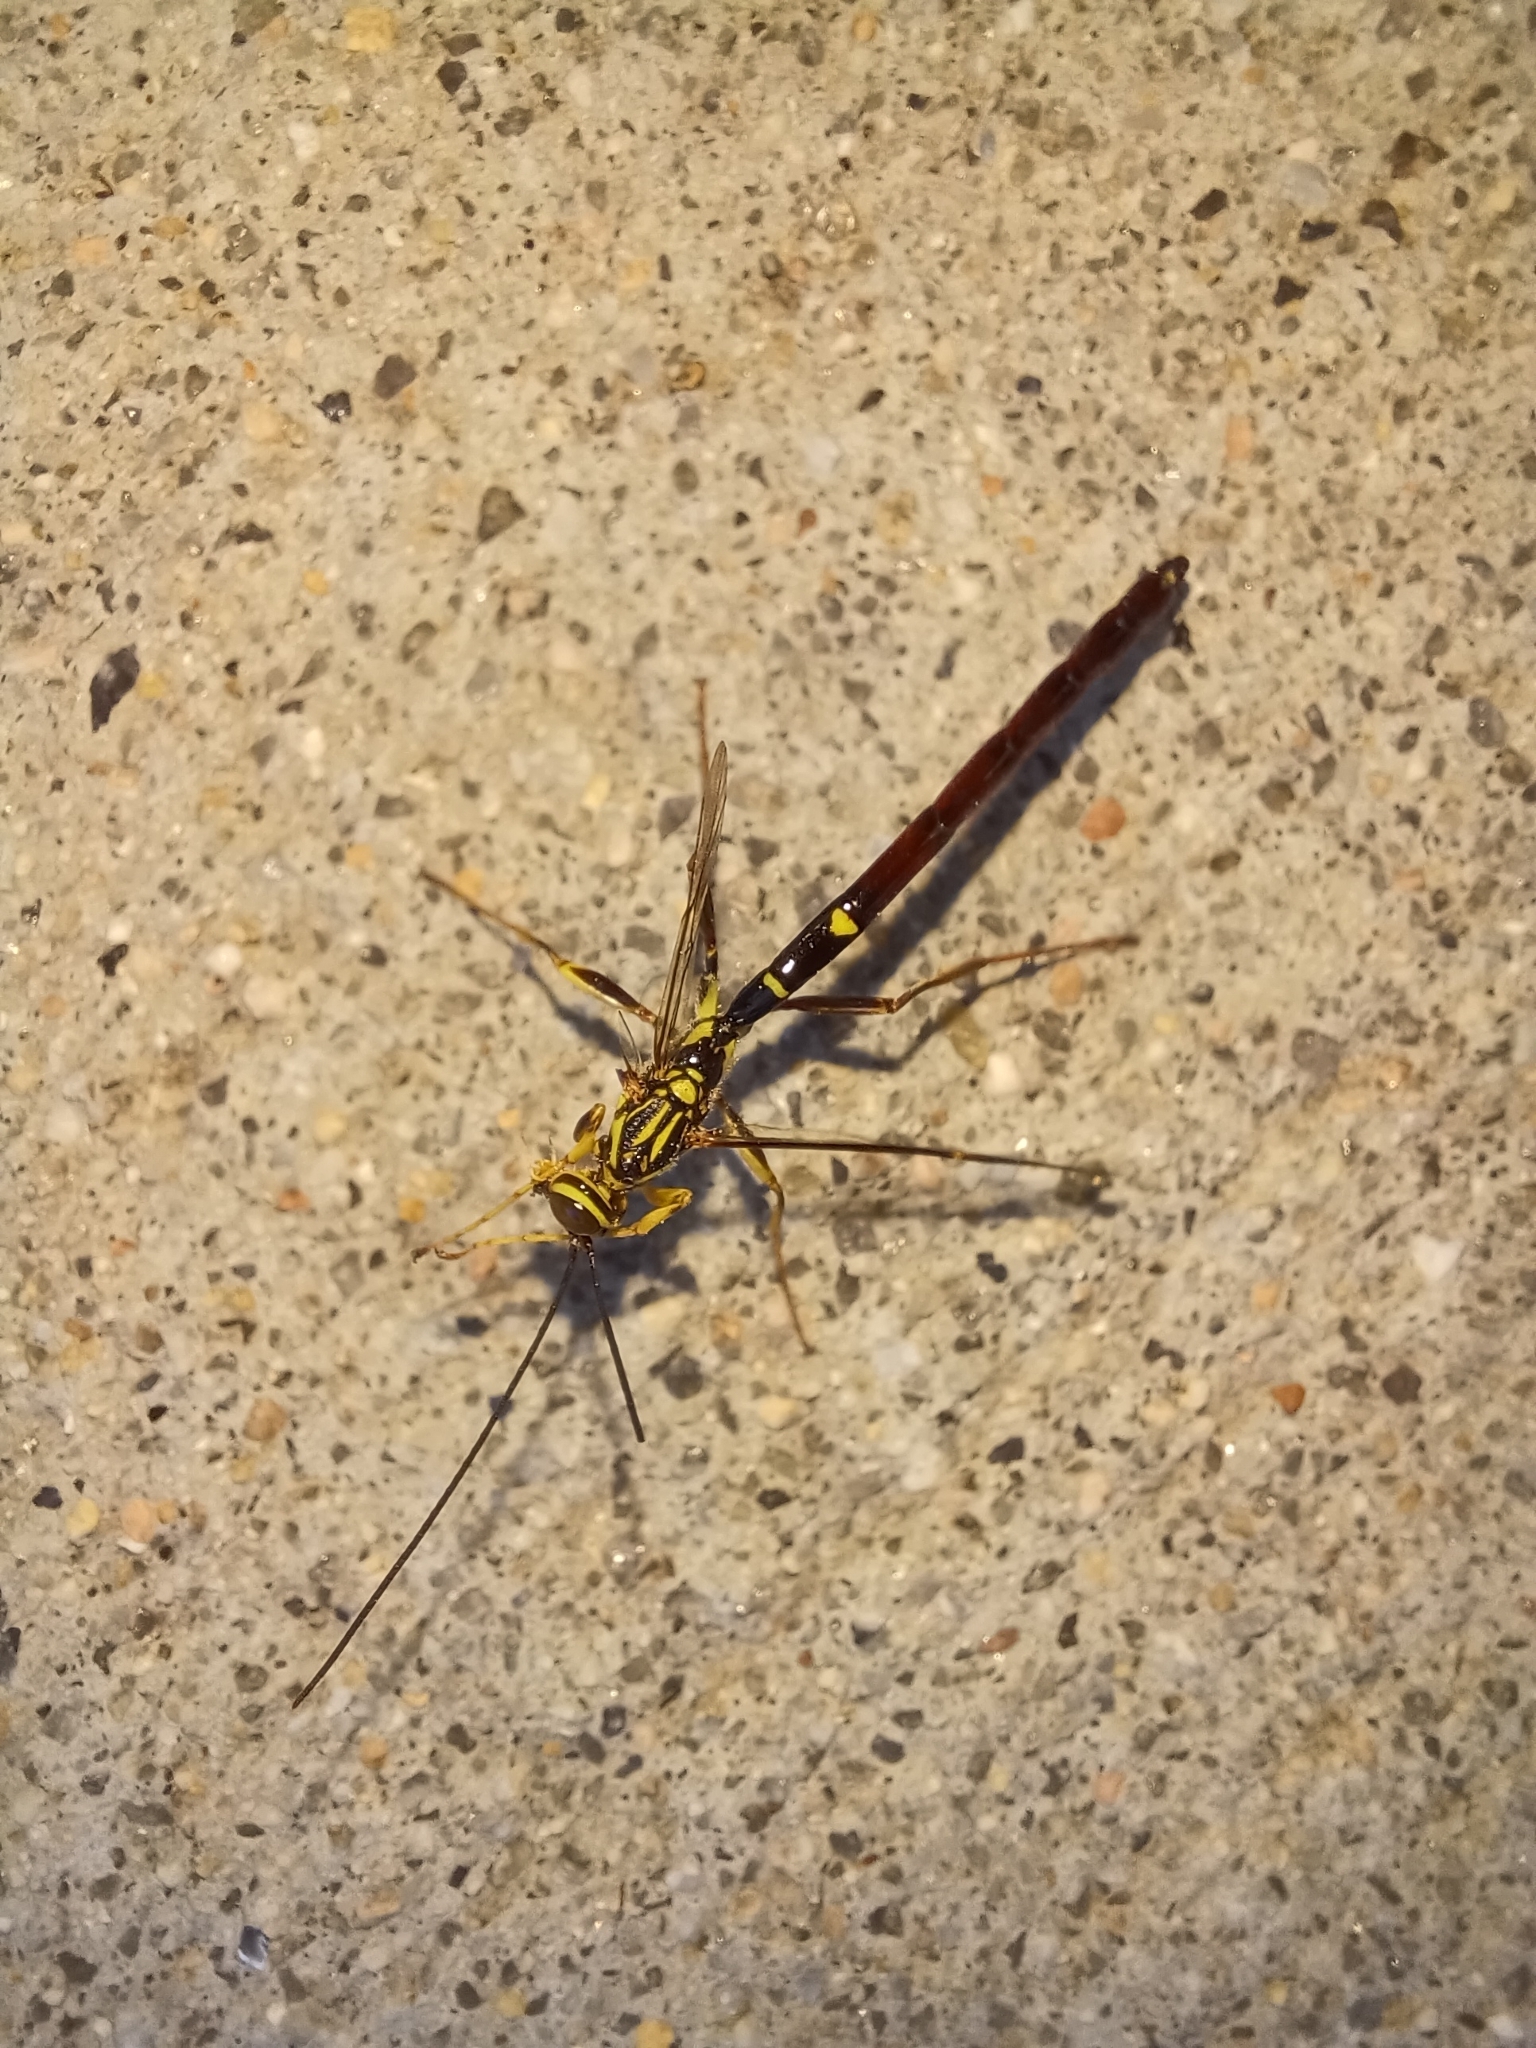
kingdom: Animalia
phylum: Arthropoda
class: Insecta
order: Hymenoptera
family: Ichneumonidae
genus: Megarhyssa
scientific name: Megarhyssa macrura
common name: Long-tailed giant ichneumonid wasp
